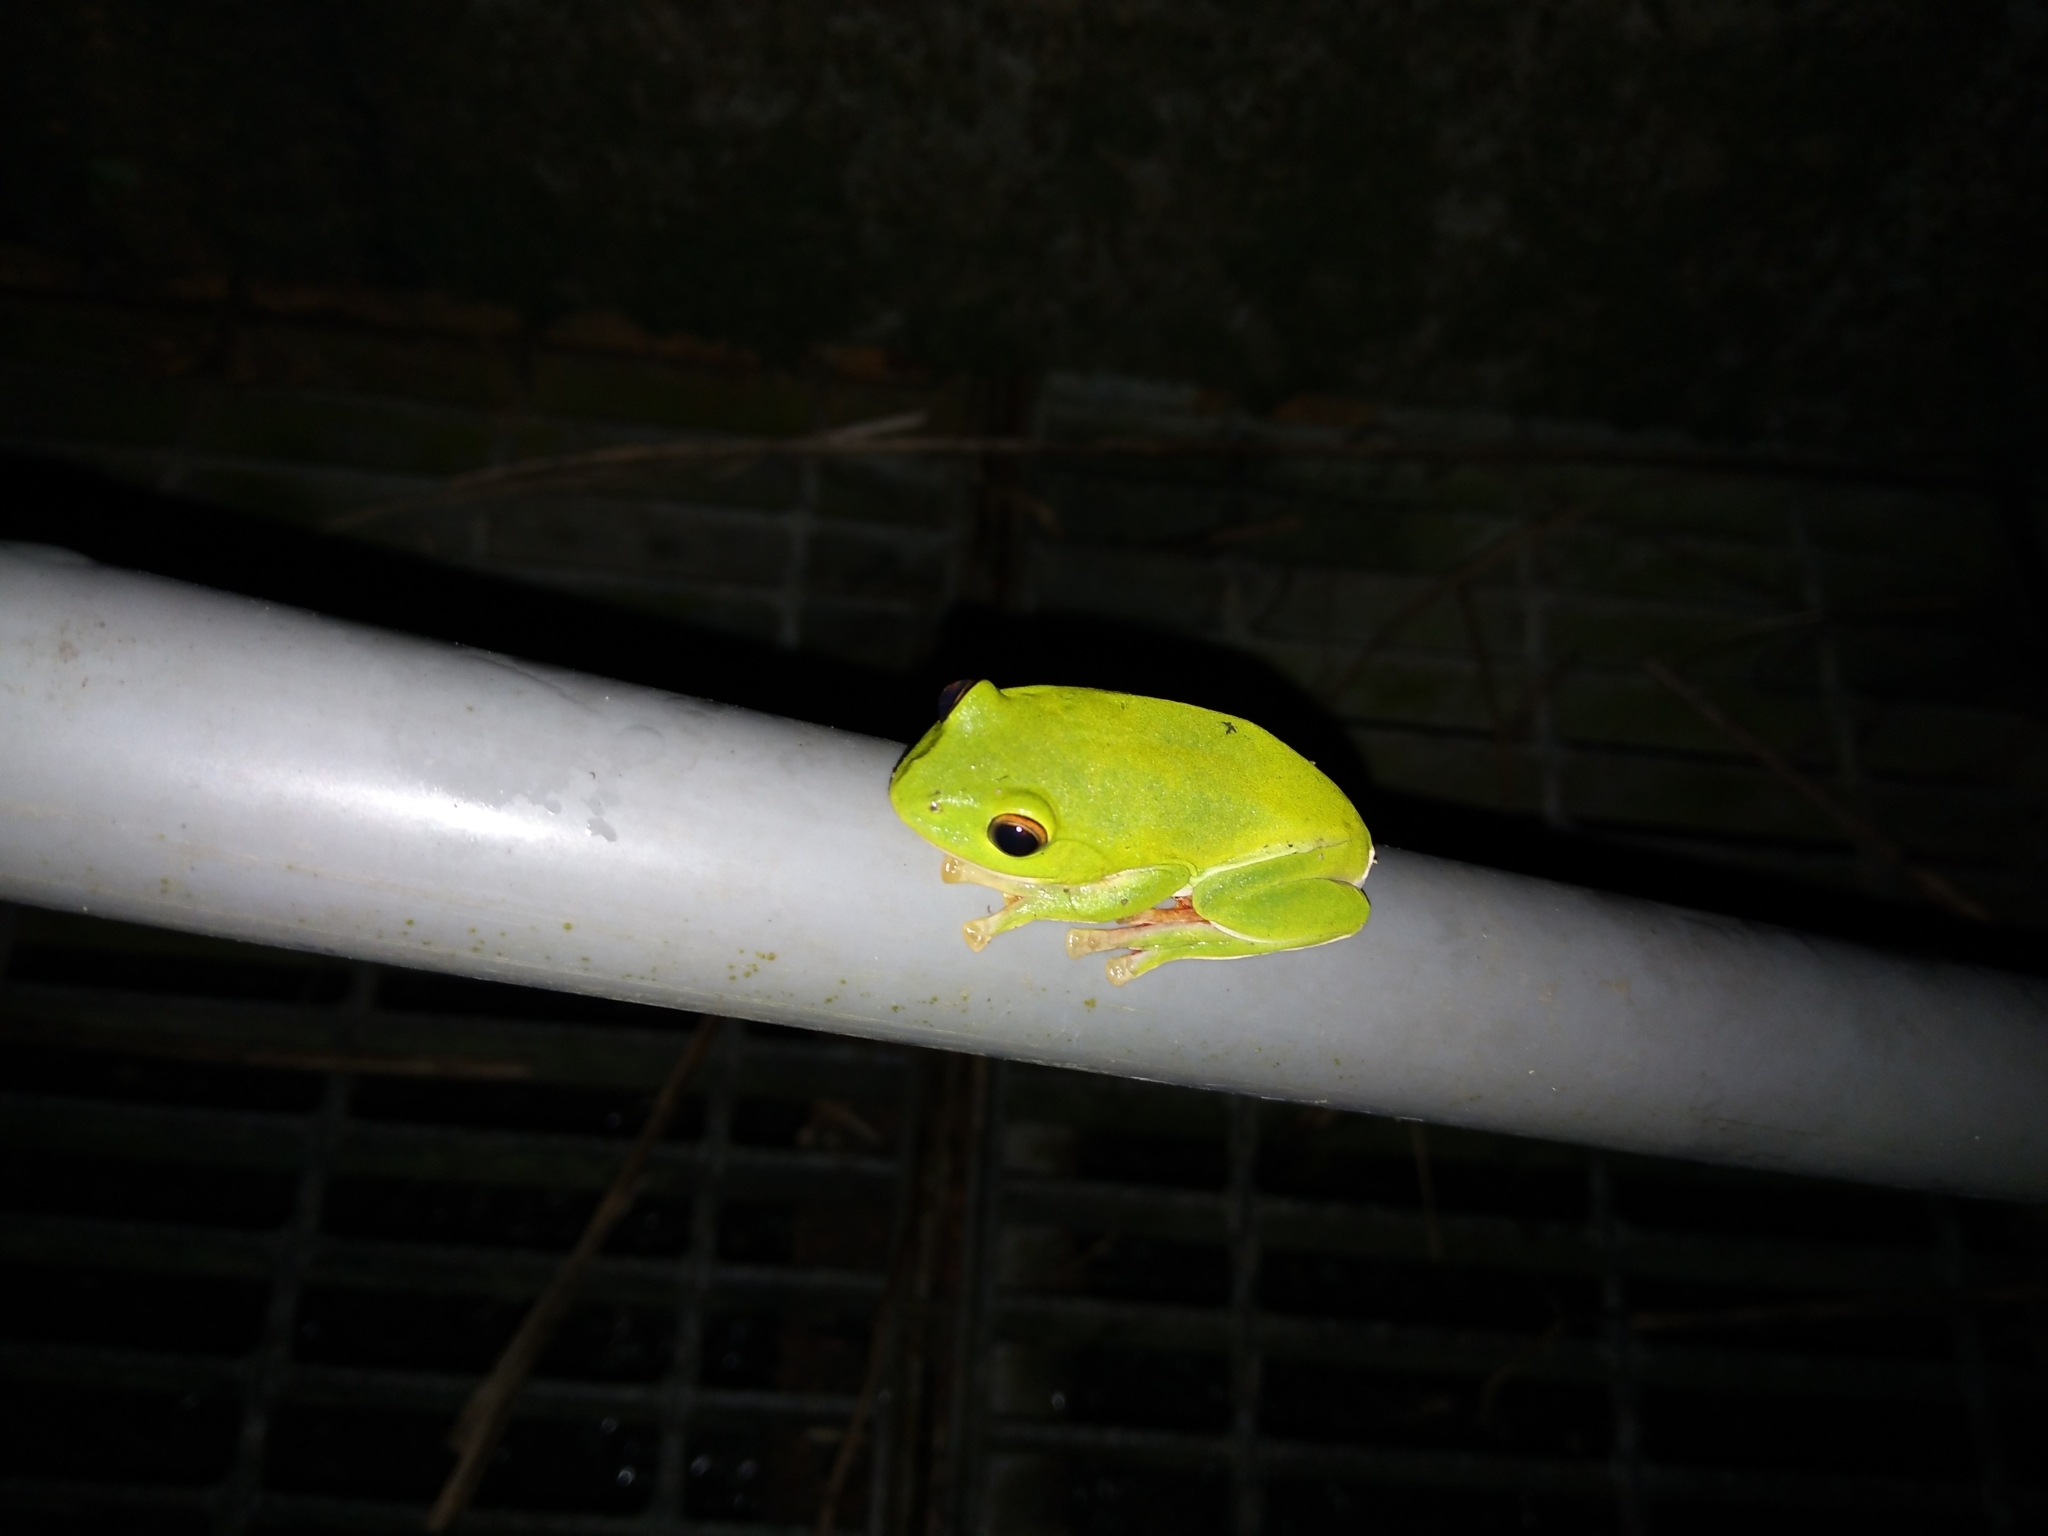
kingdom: Animalia
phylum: Chordata
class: Amphibia
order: Anura
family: Rhacophoridae
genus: Zhangixalus
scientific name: Zhangixalus moltrechti
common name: Moltrecht's treefrog
